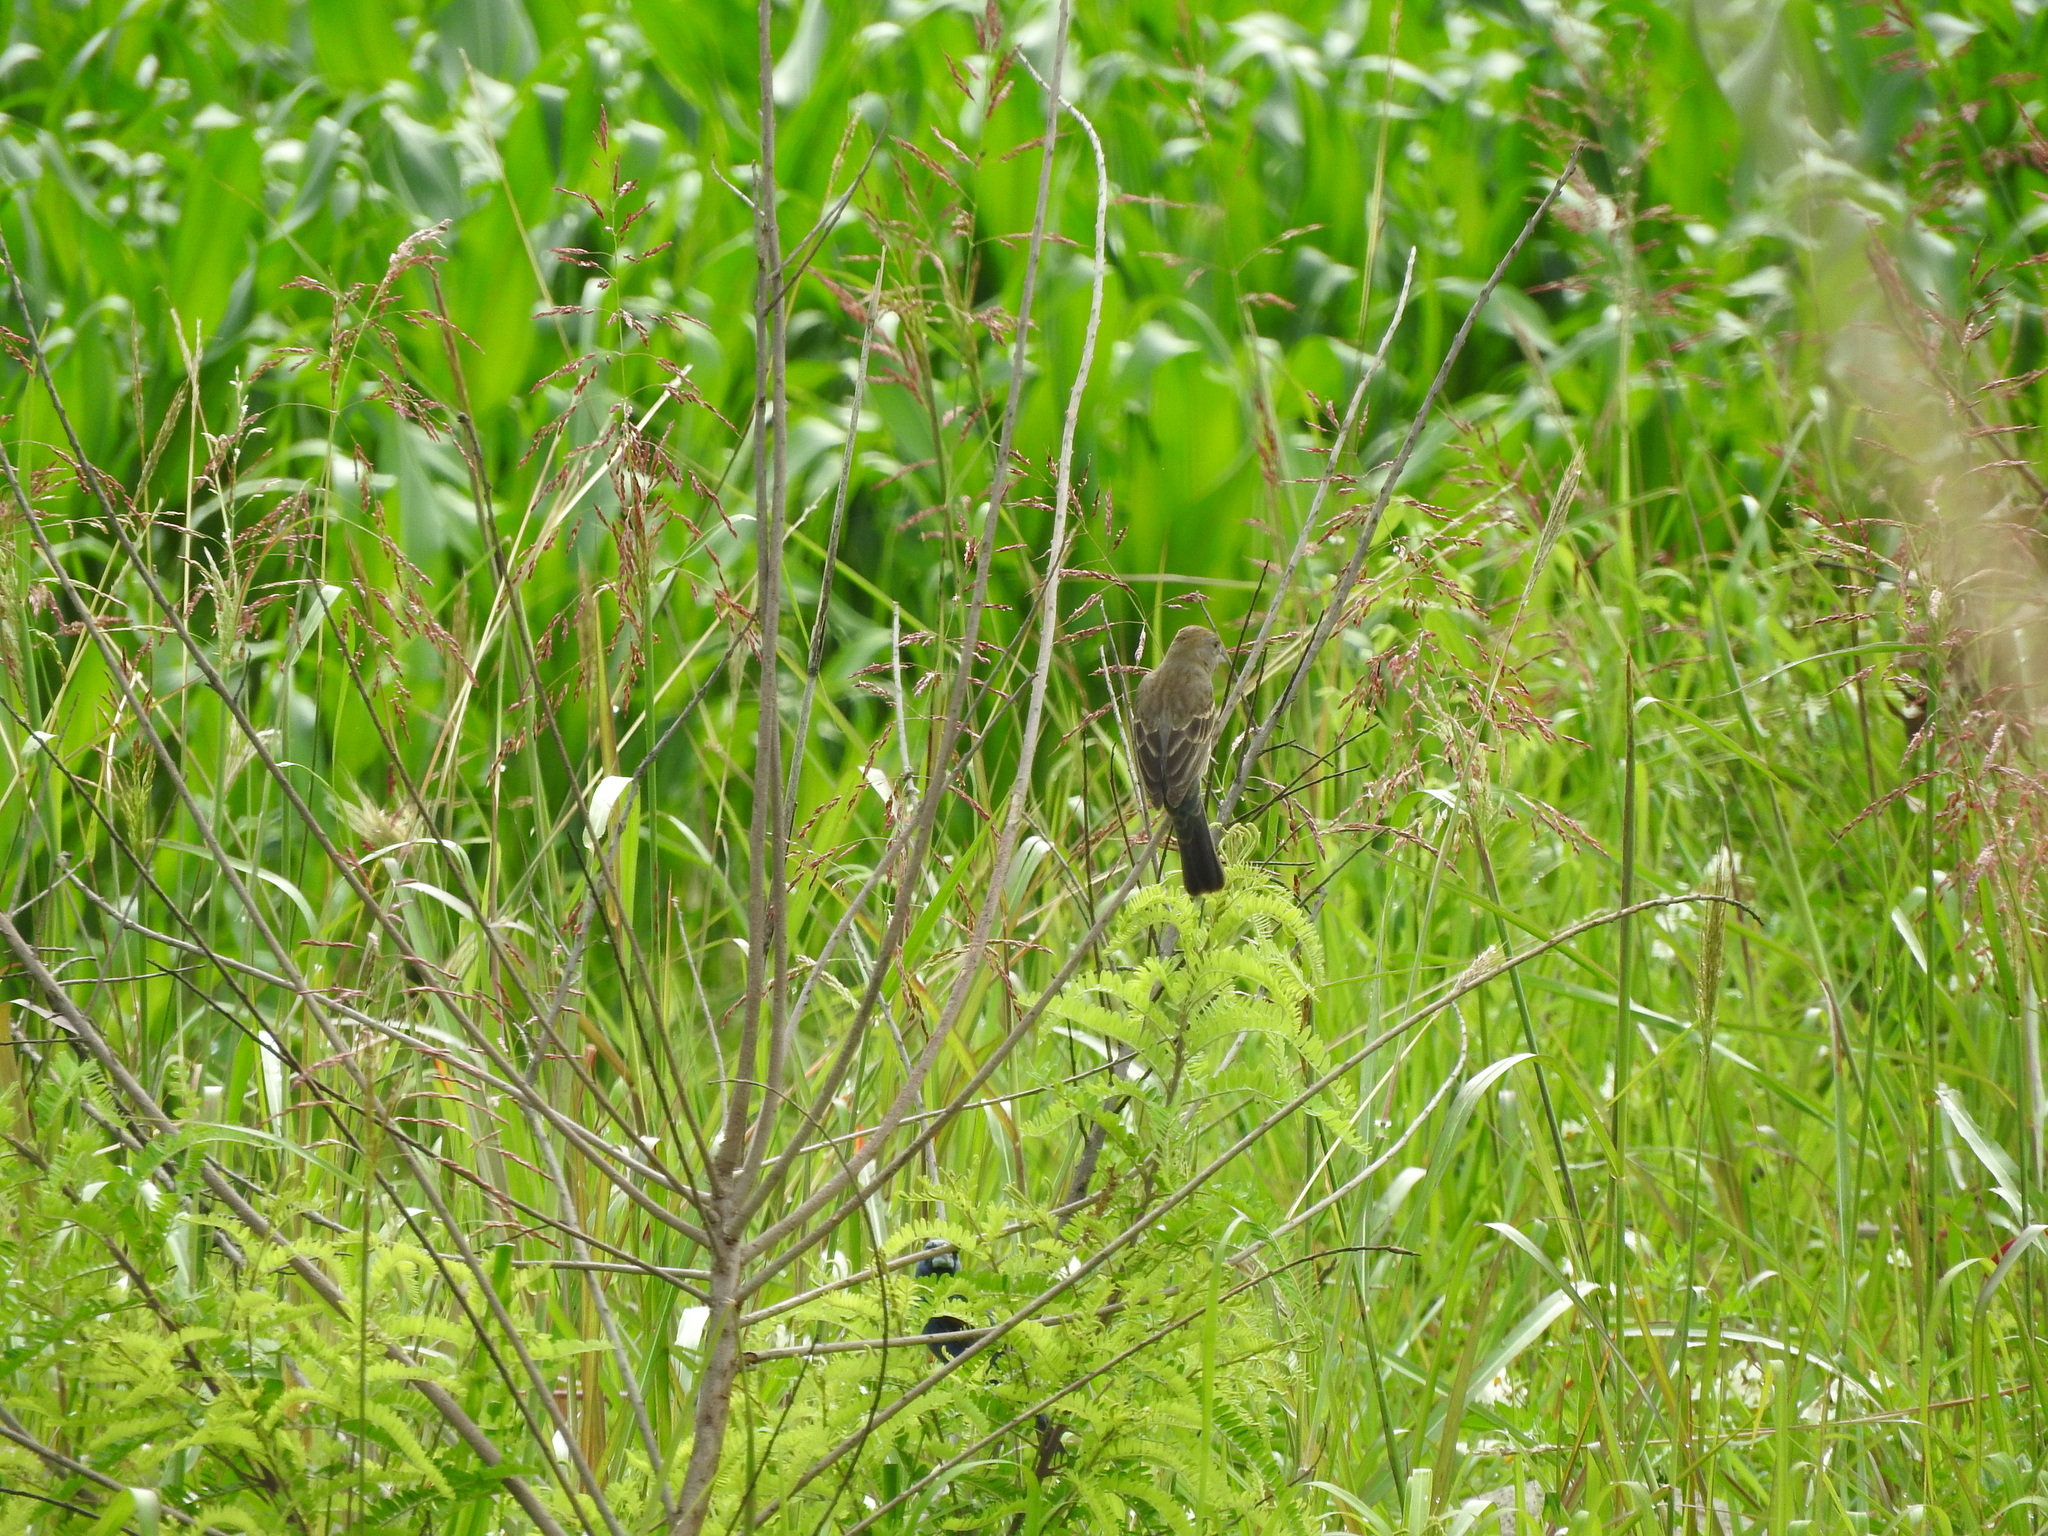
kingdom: Animalia
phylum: Chordata
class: Aves
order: Passeriformes
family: Cardinalidae
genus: Passerina
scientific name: Passerina caerulea
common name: Blue grosbeak
